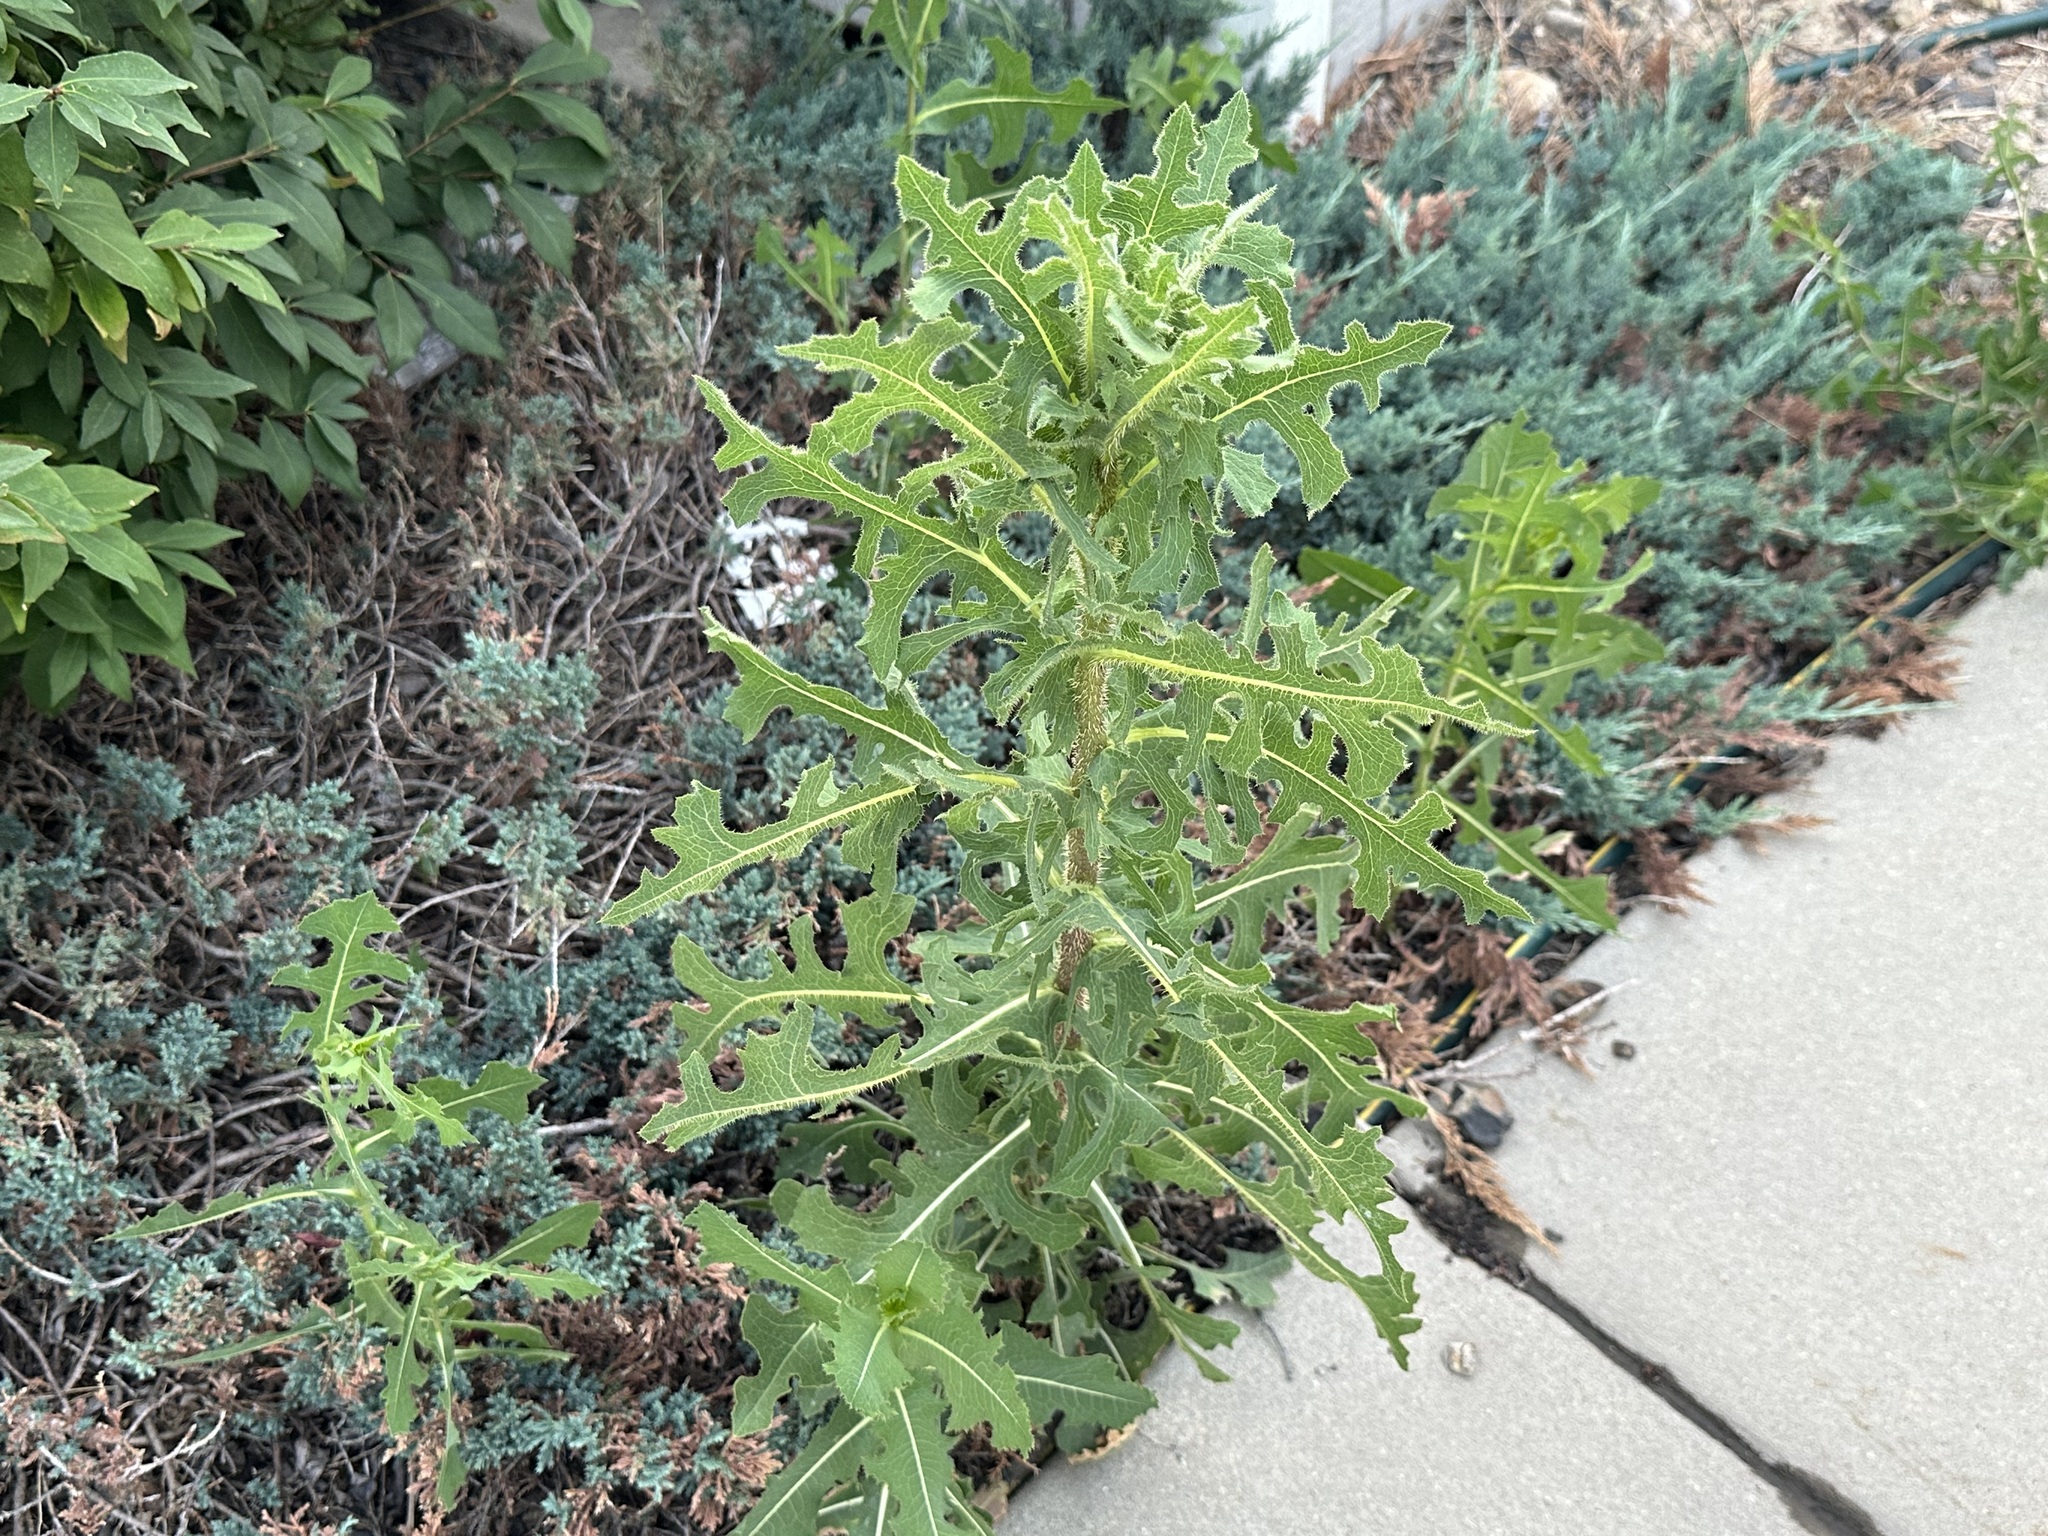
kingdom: Plantae
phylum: Tracheophyta
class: Magnoliopsida
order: Asterales
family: Asteraceae
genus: Lactuca
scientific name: Lactuca serriola
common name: Prickly lettuce
